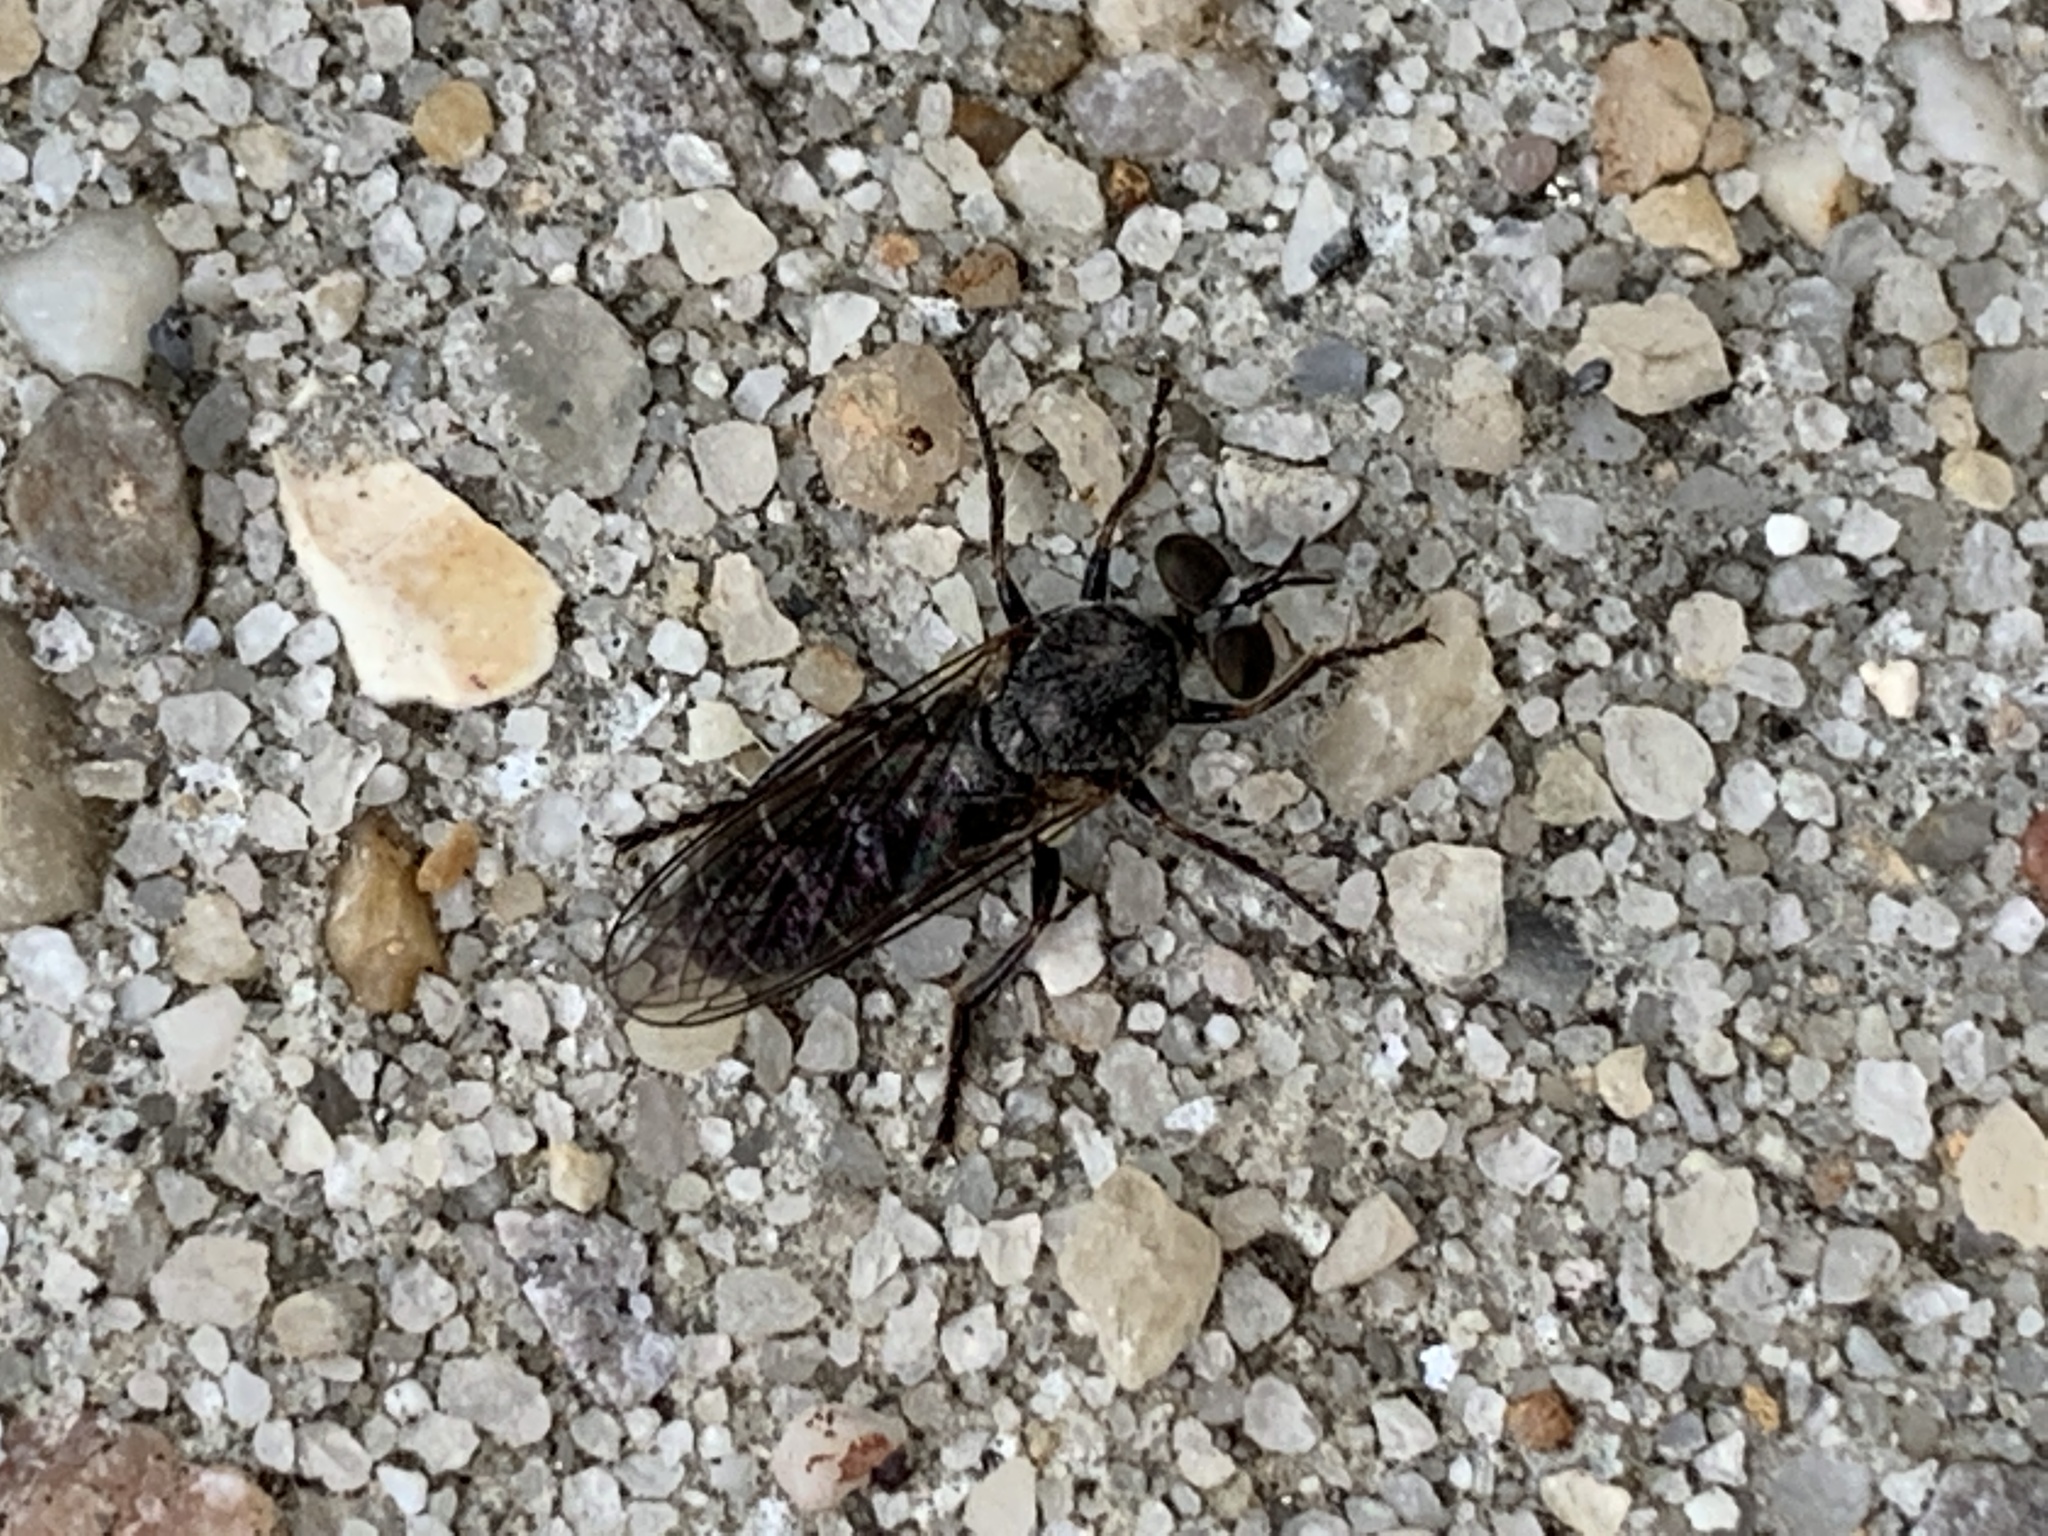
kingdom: Animalia
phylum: Arthropoda
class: Insecta
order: Diptera
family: Asilidae
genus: Atomosia
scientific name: Atomosia puella
